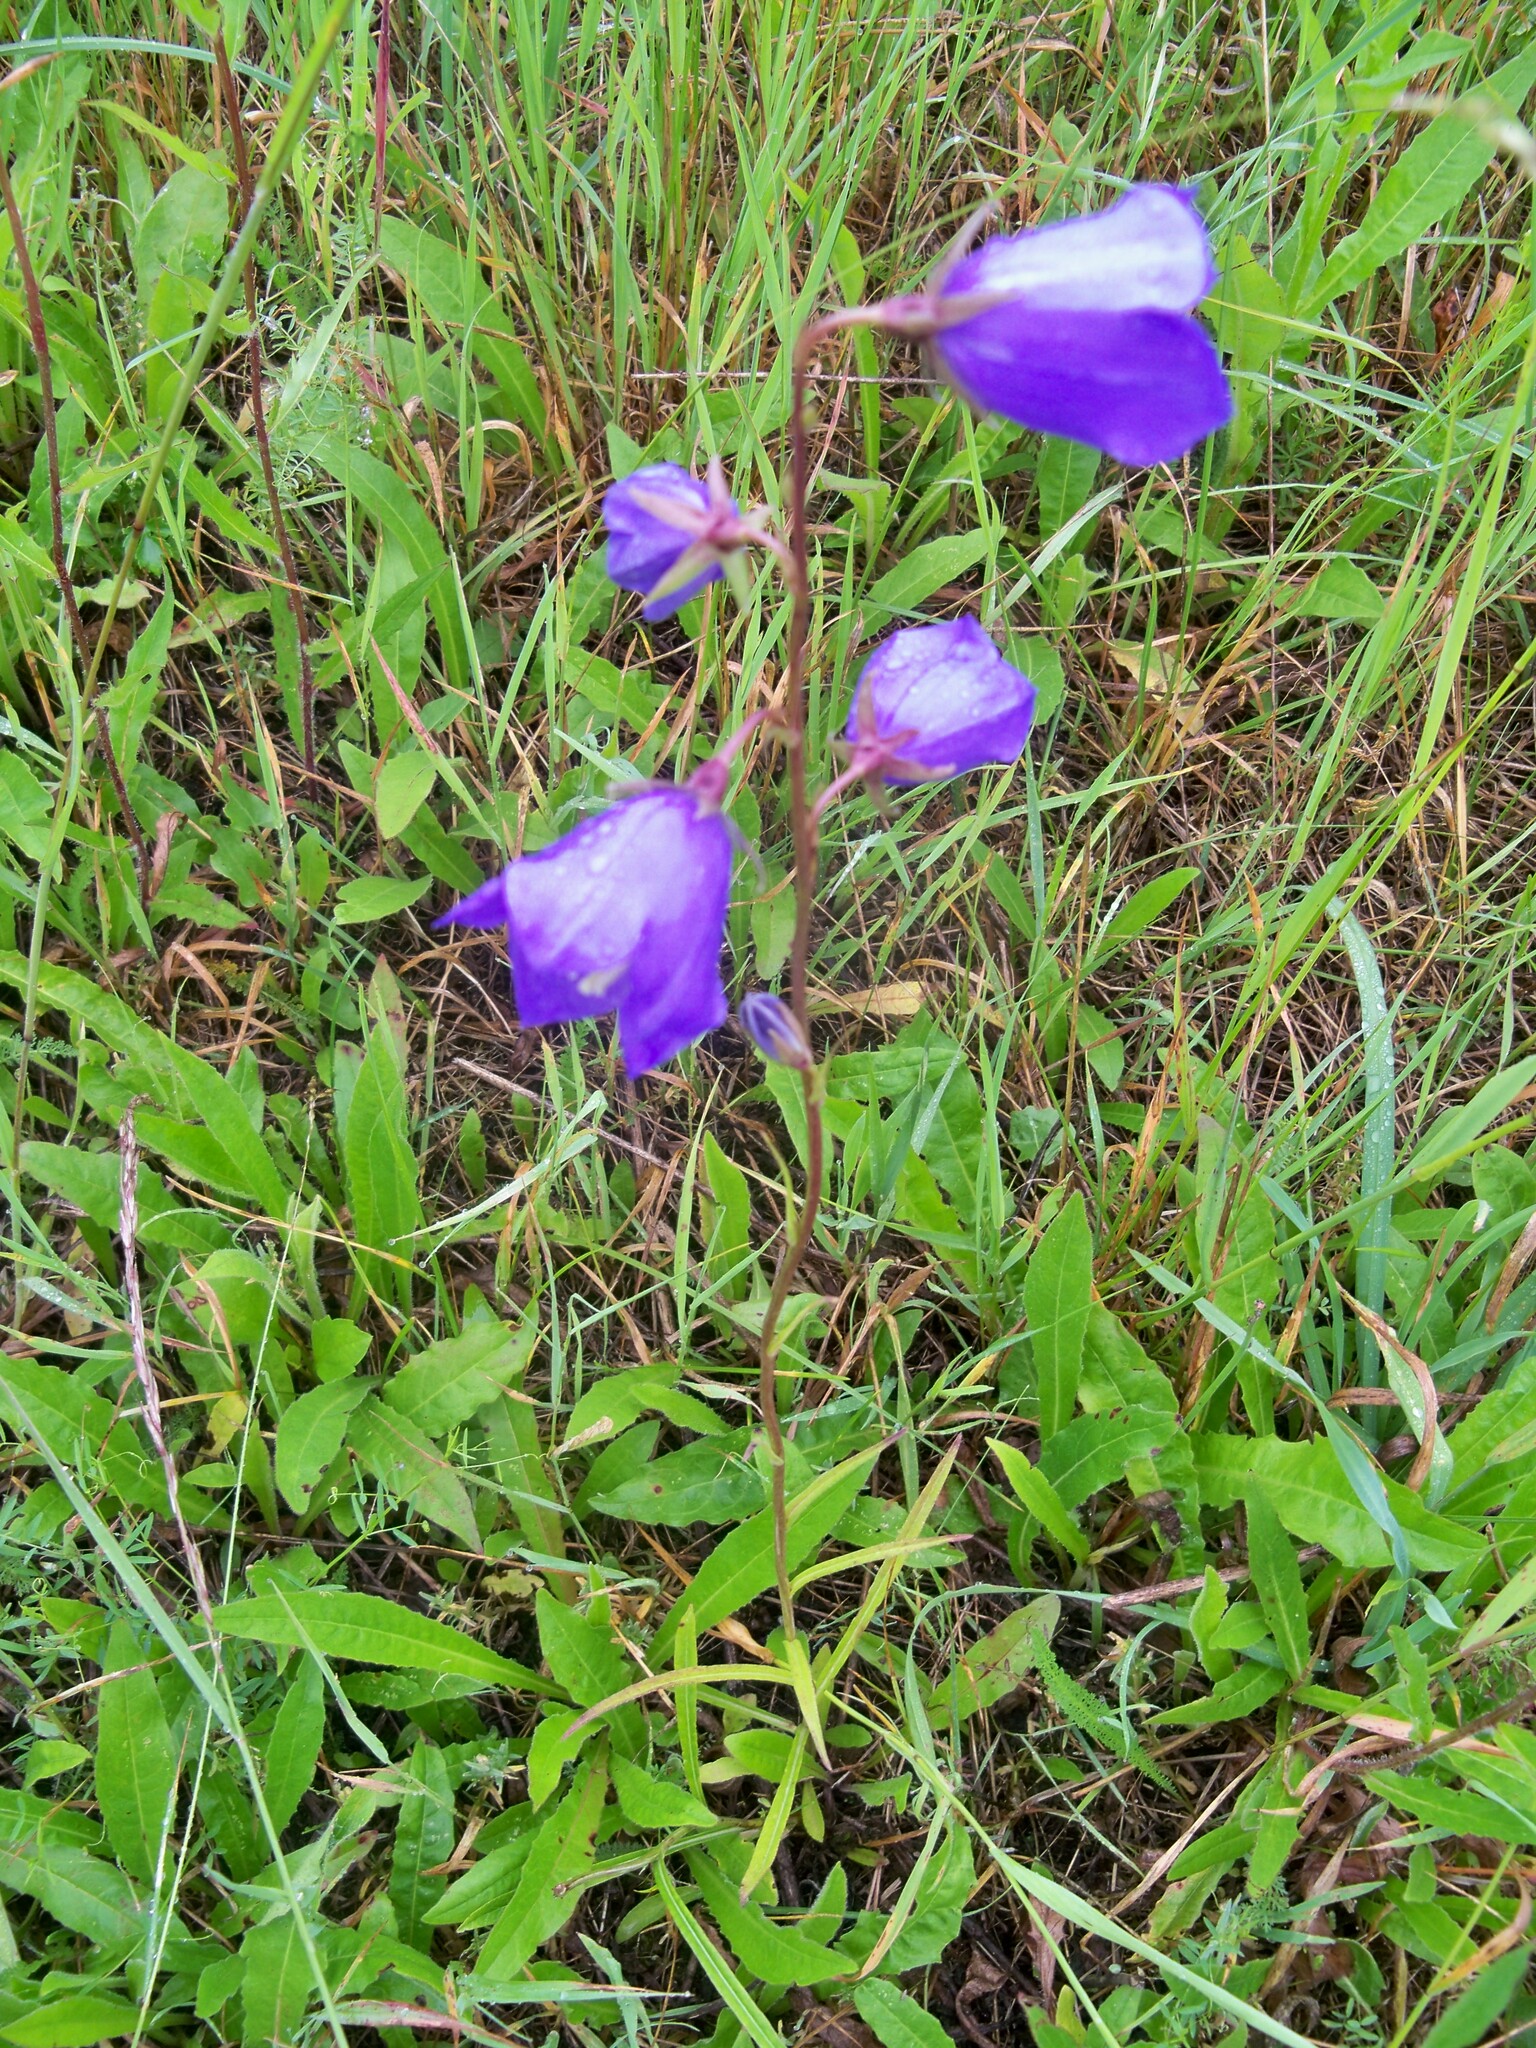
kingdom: Plantae
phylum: Tracheophyta
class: Magnoliopsida
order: Asterales
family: Campanulaceae
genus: Campanula
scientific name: Campanula persicifolia
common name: Peach-leaved bellflower
